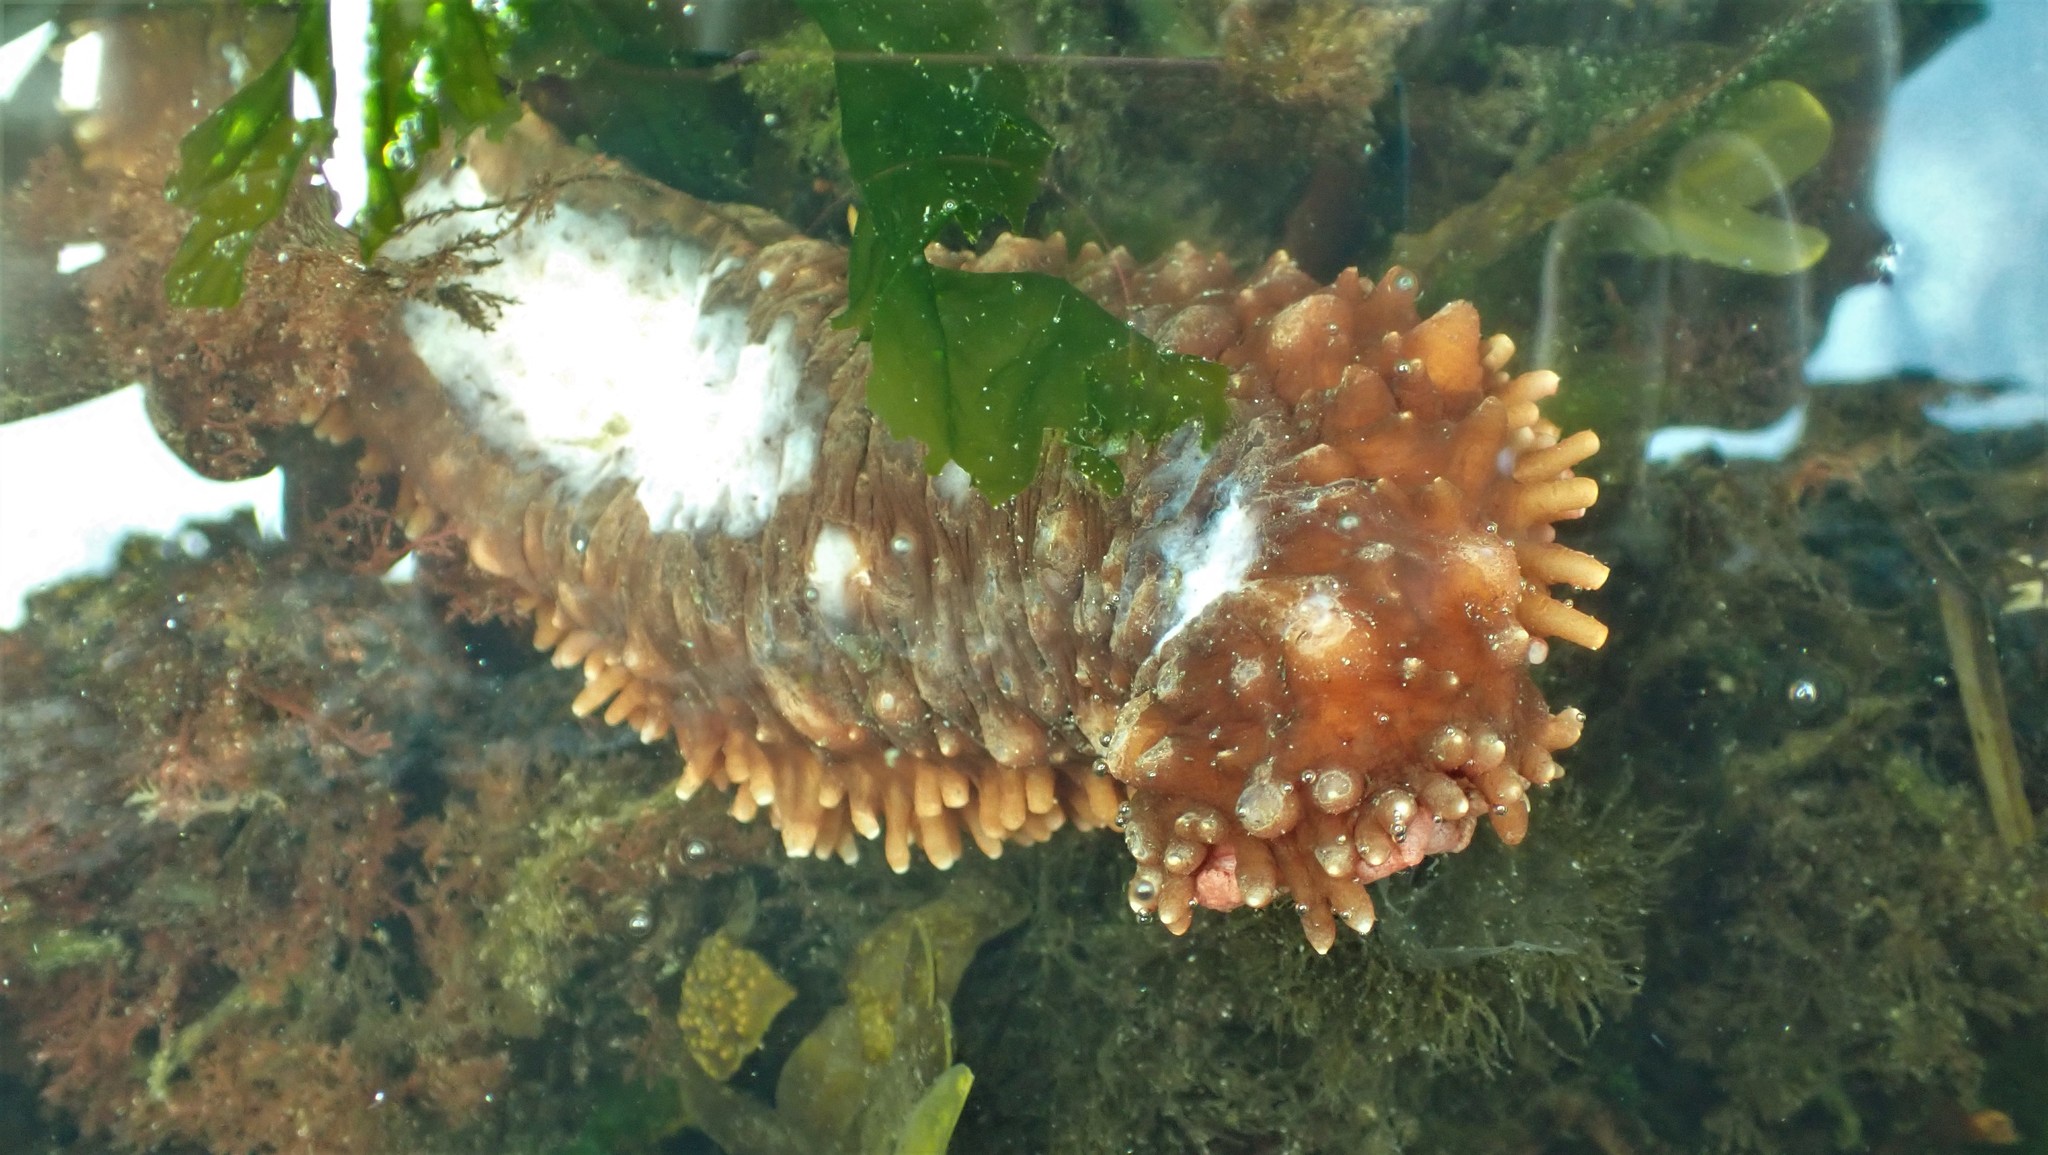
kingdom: Animalia
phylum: Echinodermata
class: Holothuroidea
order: Synallactida
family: Stichopodidae
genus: Apostichopus
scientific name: Apostichopus californicus
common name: California sea cucumber
